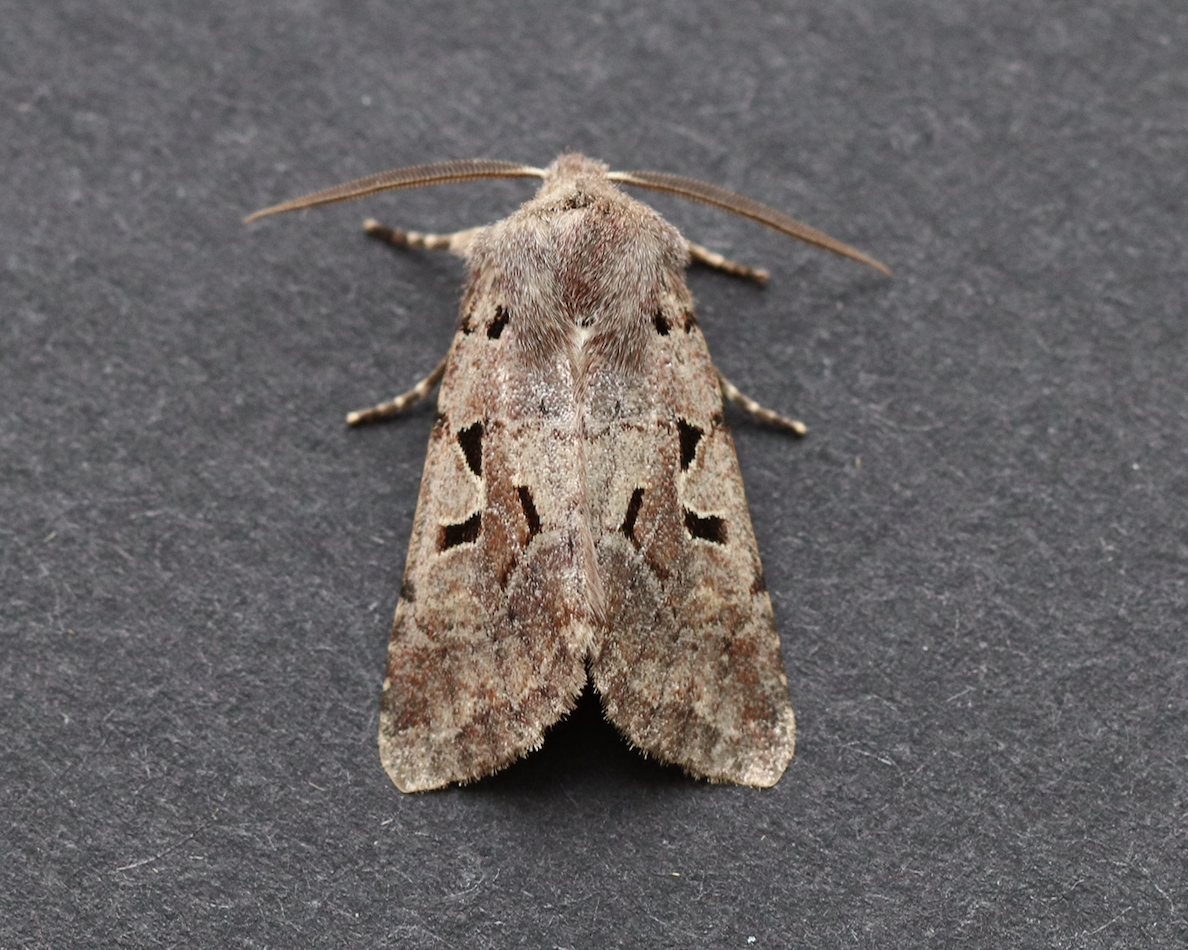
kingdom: Animalia
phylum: Arthropoda
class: Insecta
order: Lepidoptera
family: Noctuidae
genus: Orthosia
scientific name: Orthosia gothica
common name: Hebrew character
